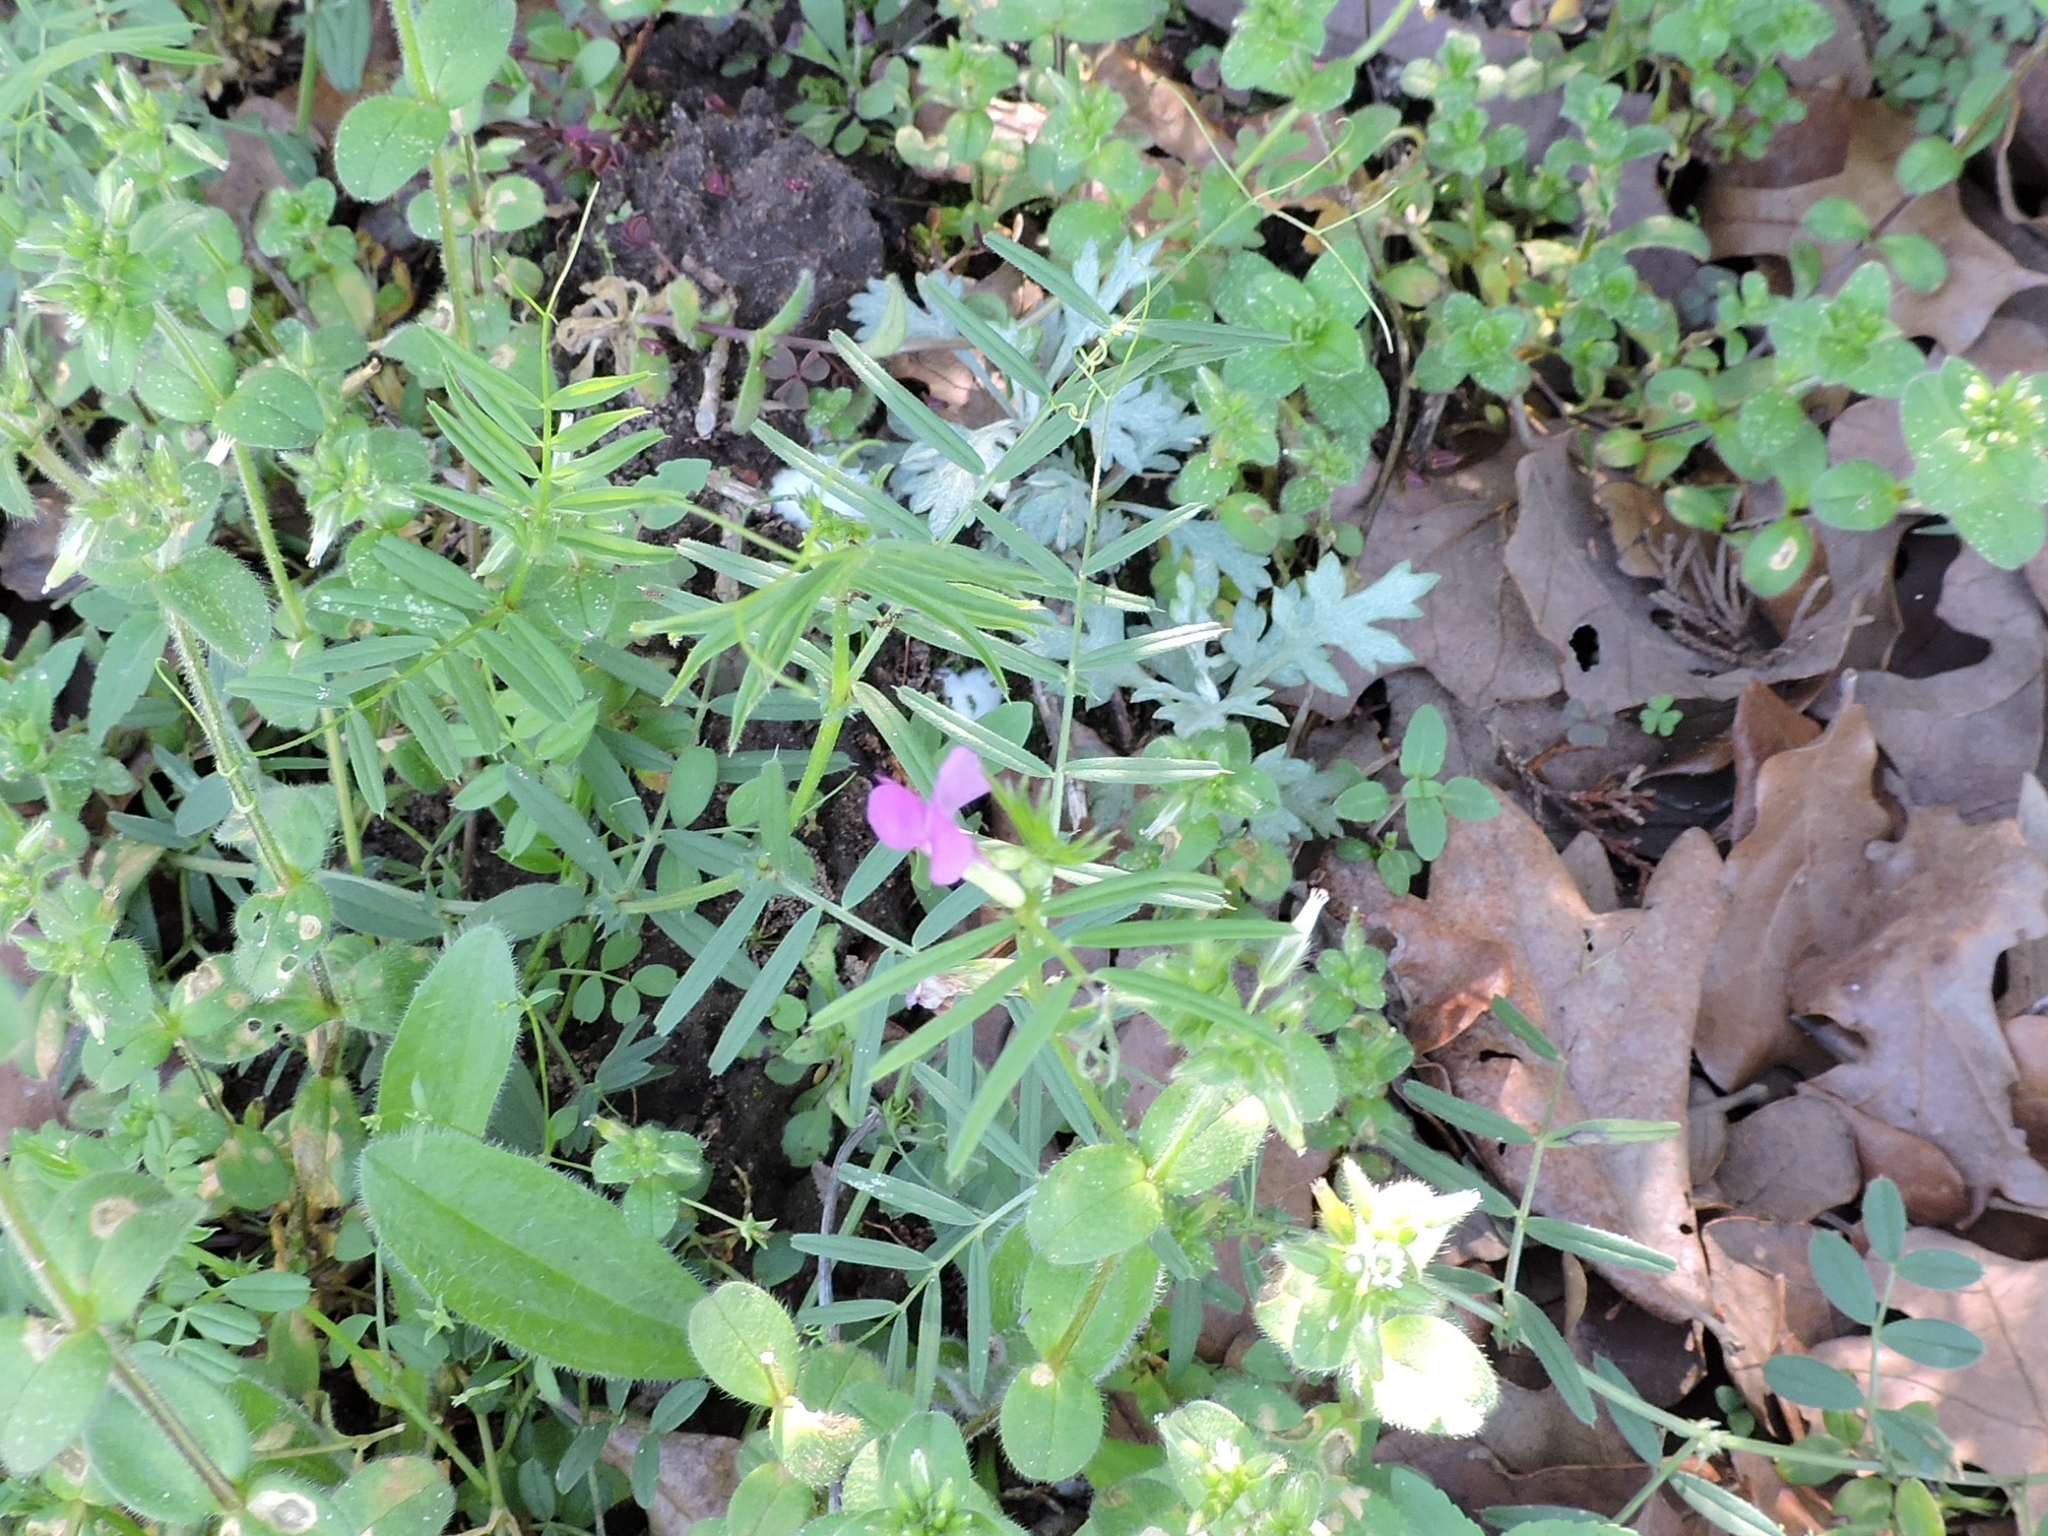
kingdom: Plantae
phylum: Tracheophyta
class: Magnoliopsida
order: Fabales
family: Fabaceae
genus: Vicia
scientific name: Vicia sativa
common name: Garden vetch
